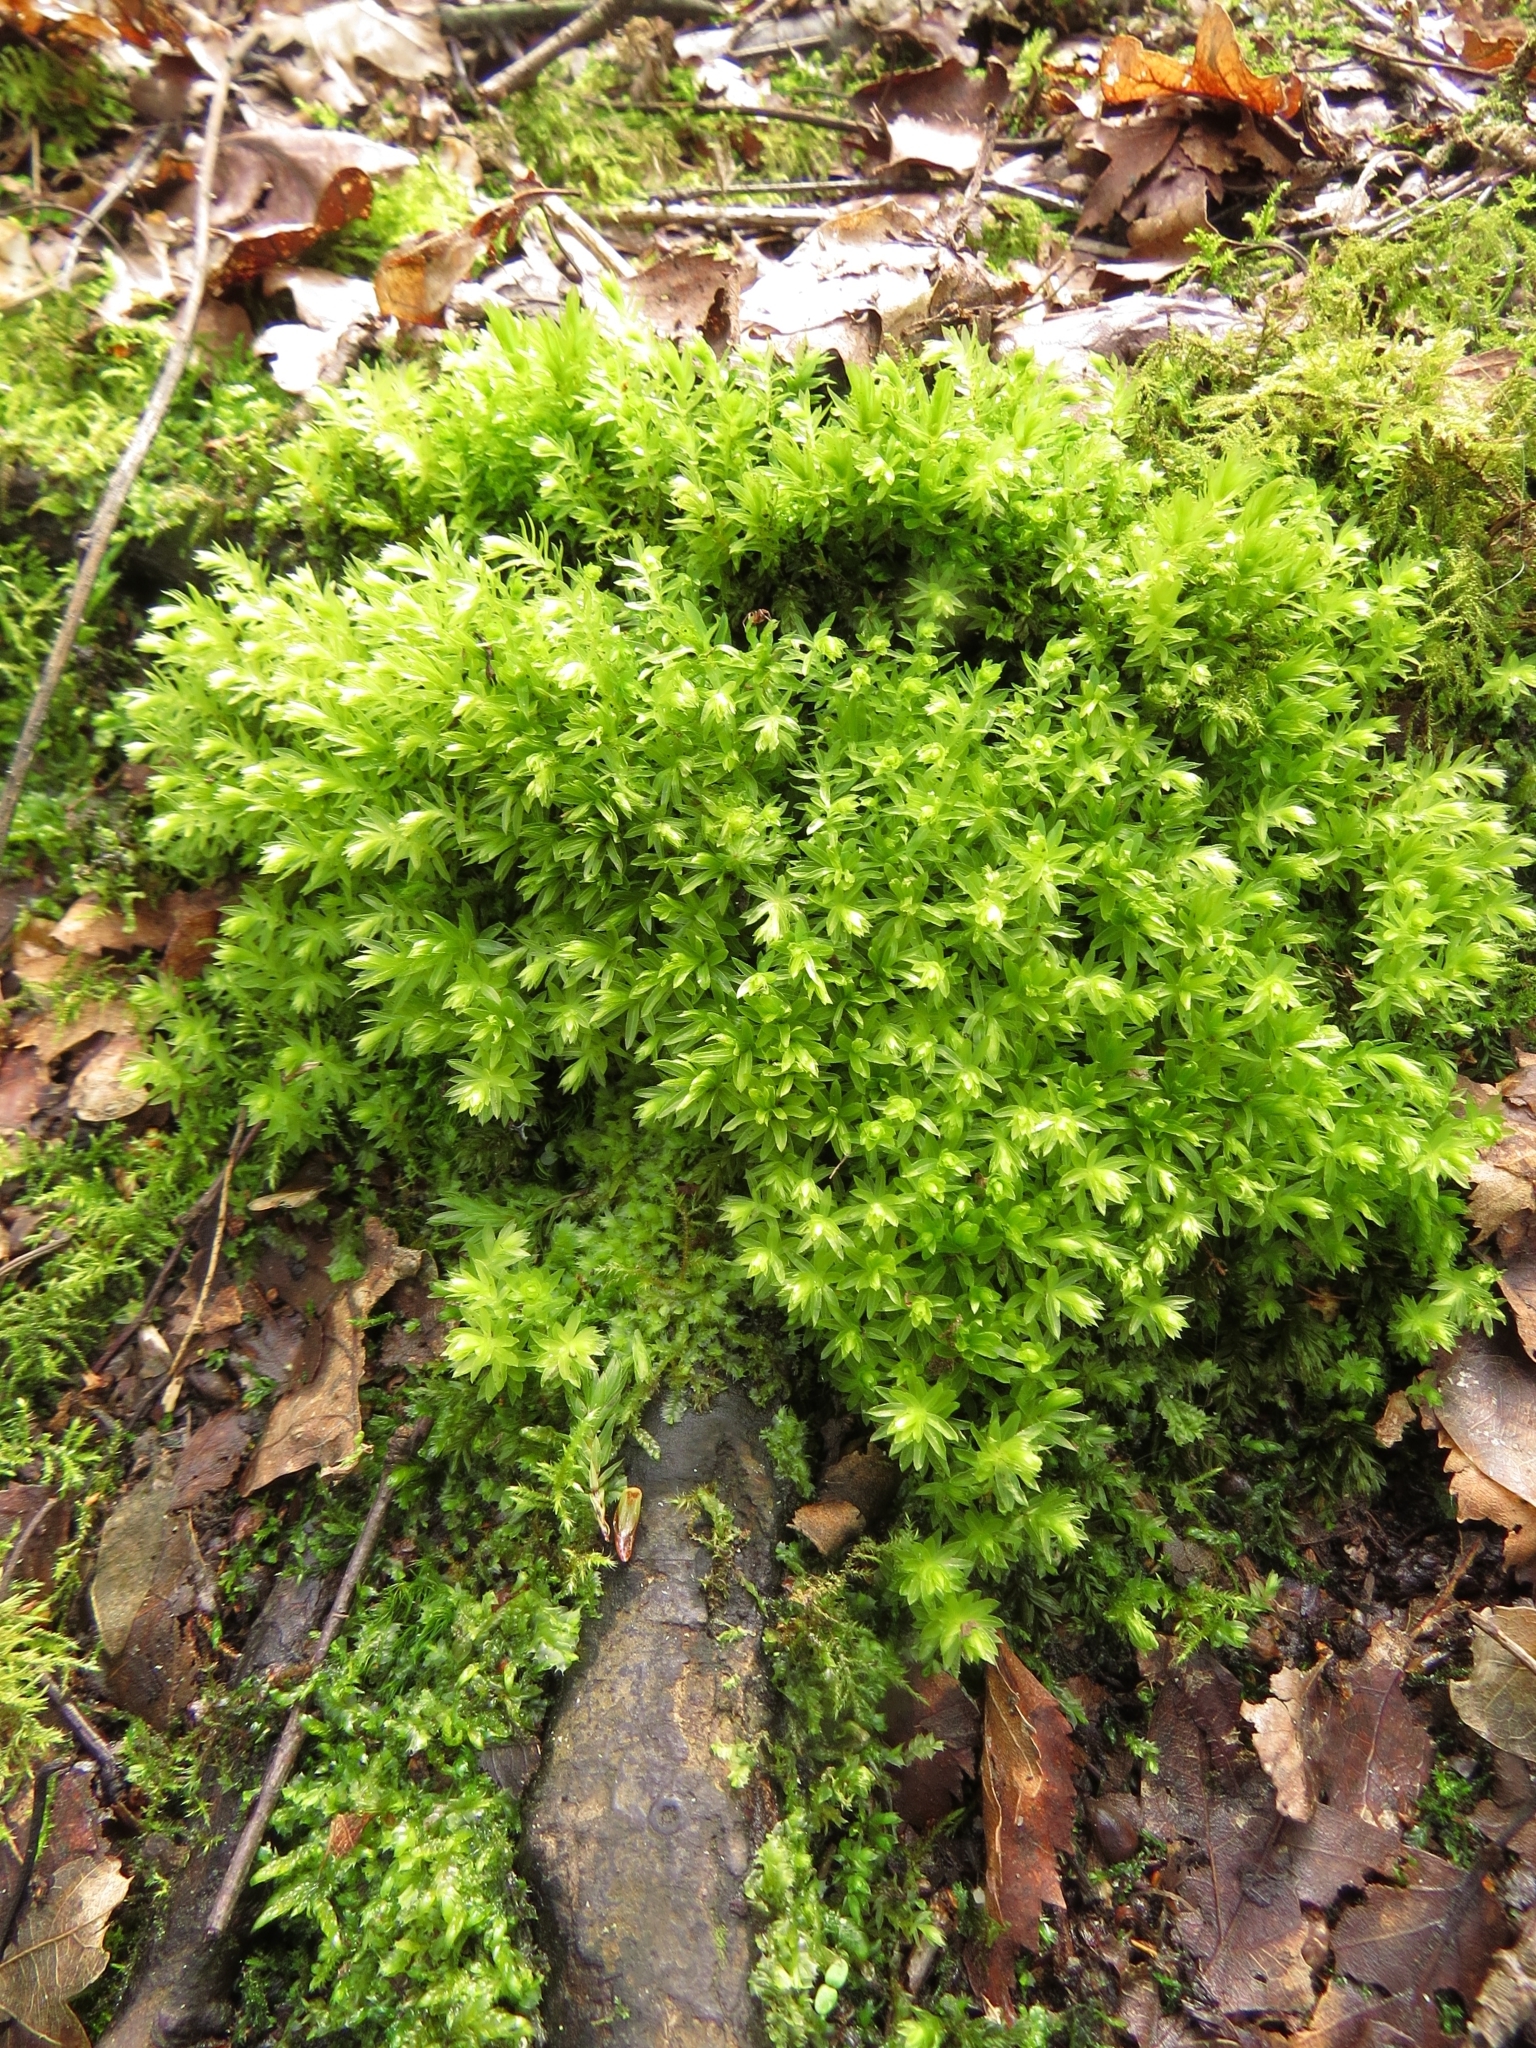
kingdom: Plantae
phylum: Bryophyta
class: Bryopsida
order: Bryales
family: Mniaceae
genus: Mnium
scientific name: Mnium hornum
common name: Swan's-neck leafy moss
